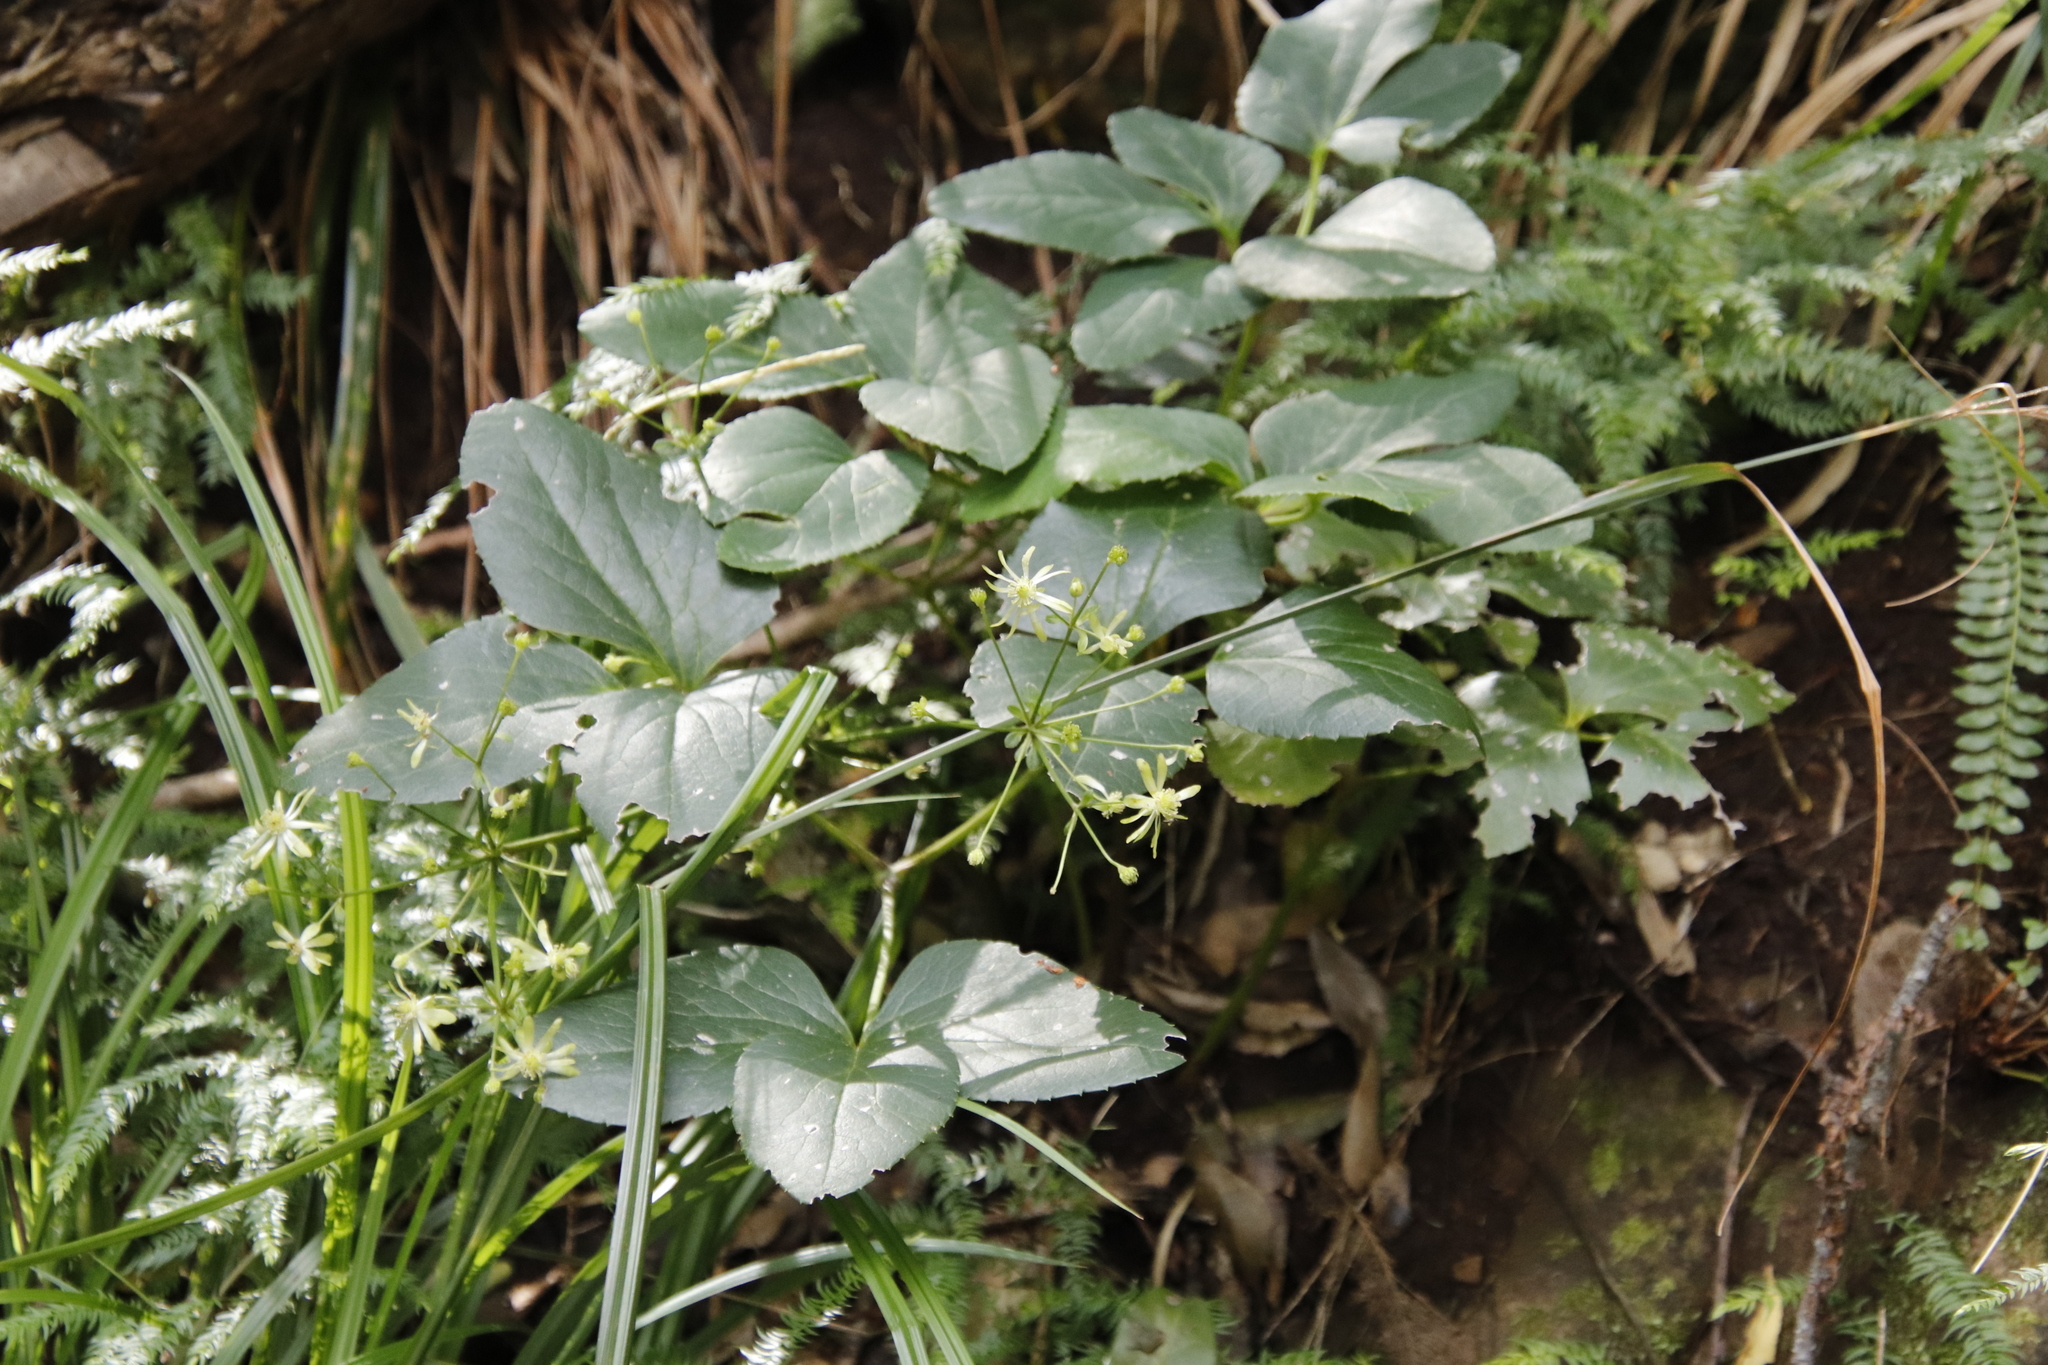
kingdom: Plantae
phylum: Tracheophyta
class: Magnoliopsida
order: Ranunculales
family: Ranunculaceae
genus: Knowltonia
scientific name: Knowltonia vesicatoria
